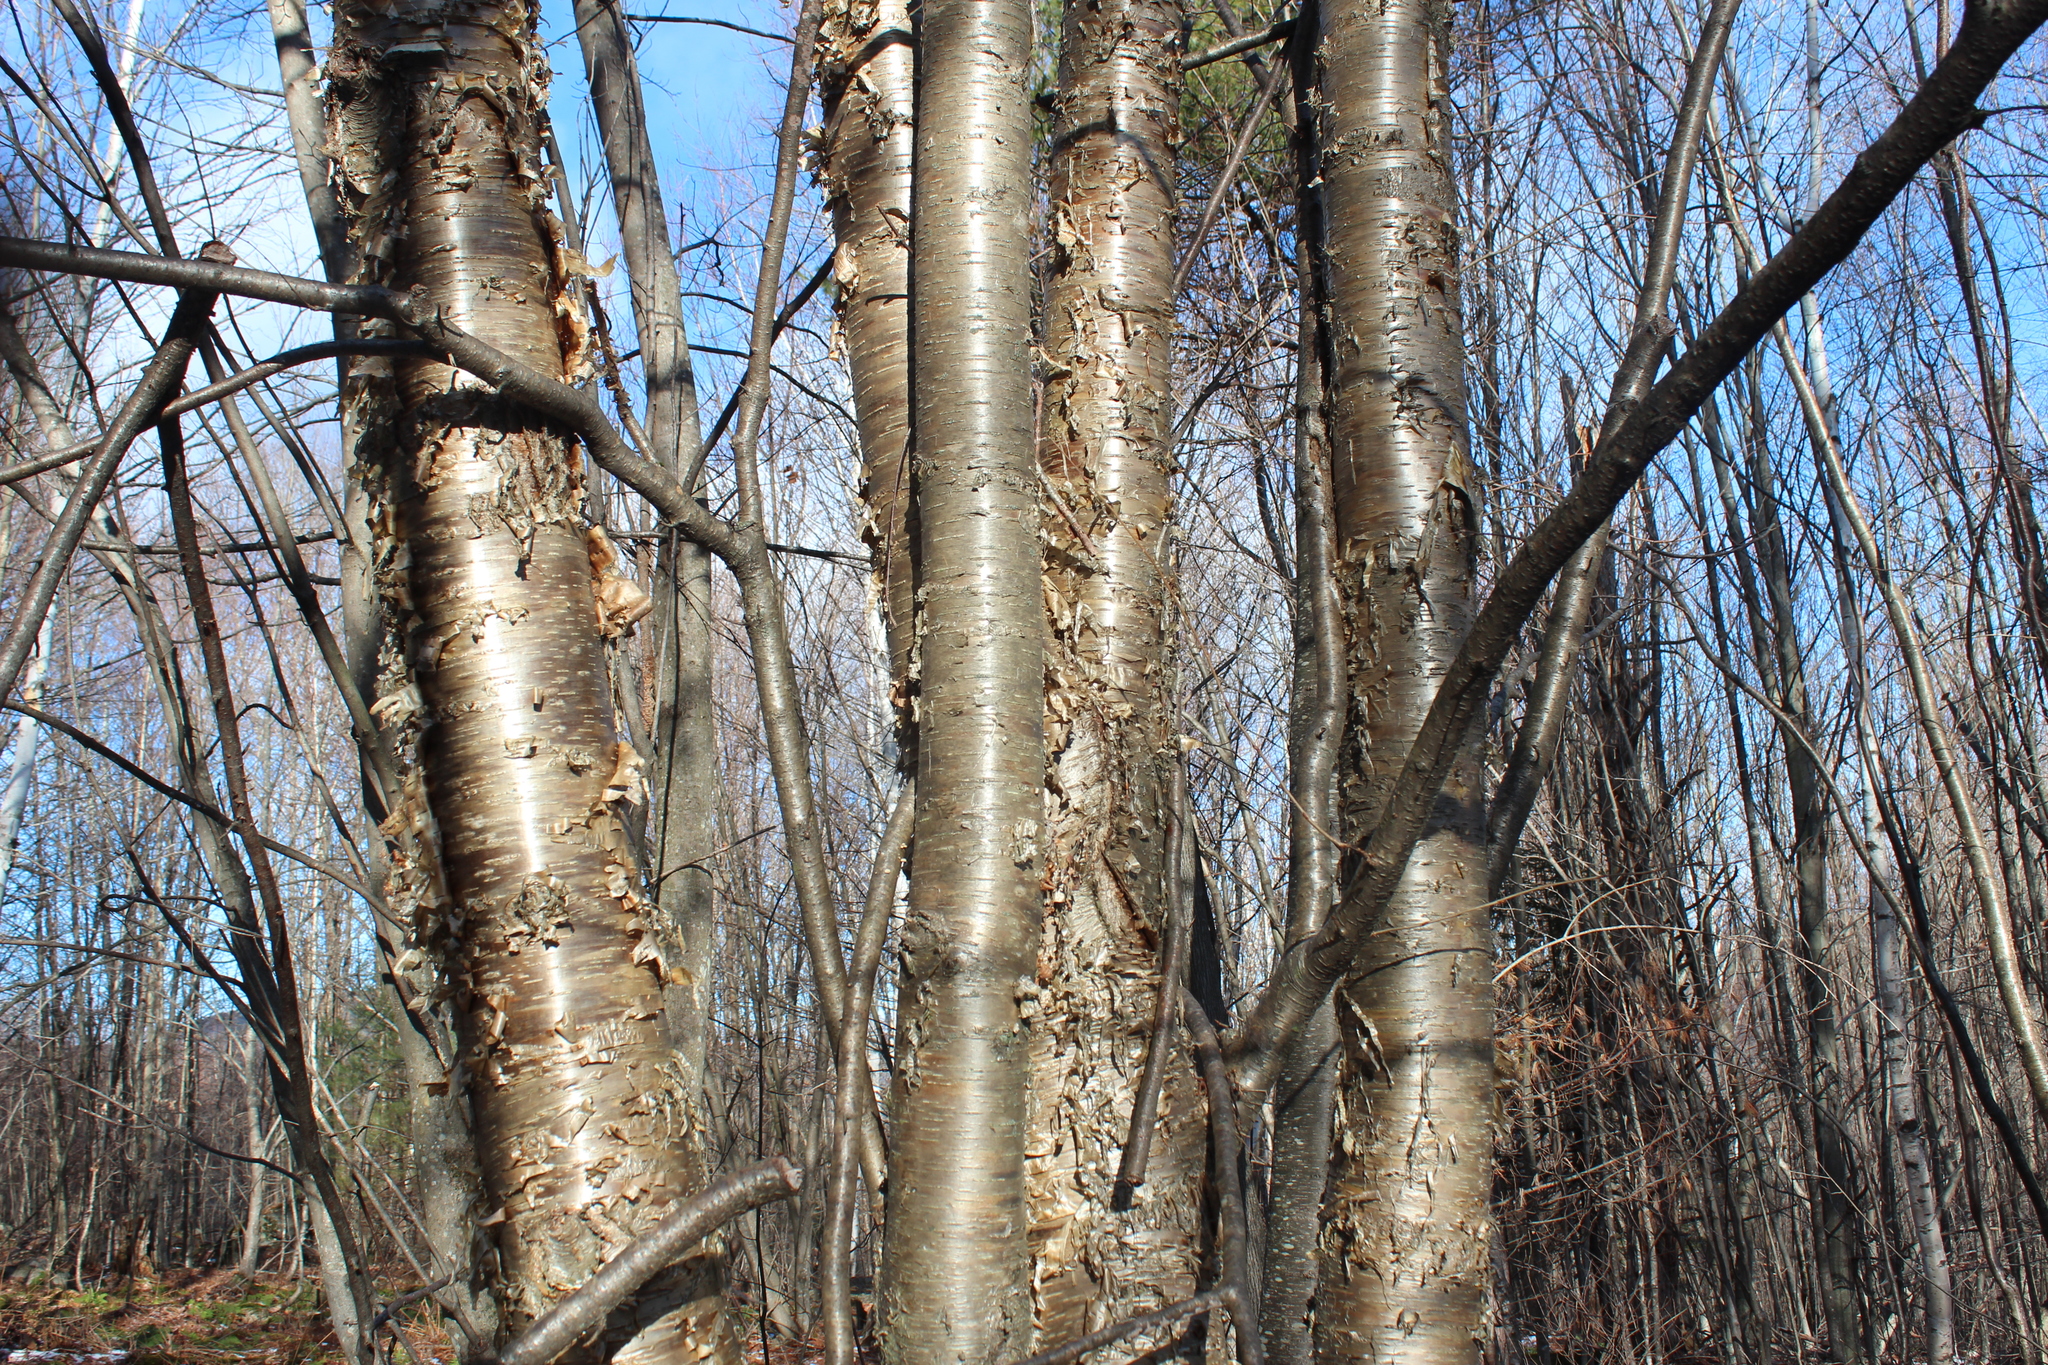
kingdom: Plantae
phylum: Tracheophyta
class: Magnoliopsida
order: Fagales
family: Betulaceae
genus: Betula
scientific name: Betula alleghaniensis
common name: Yellow birch
